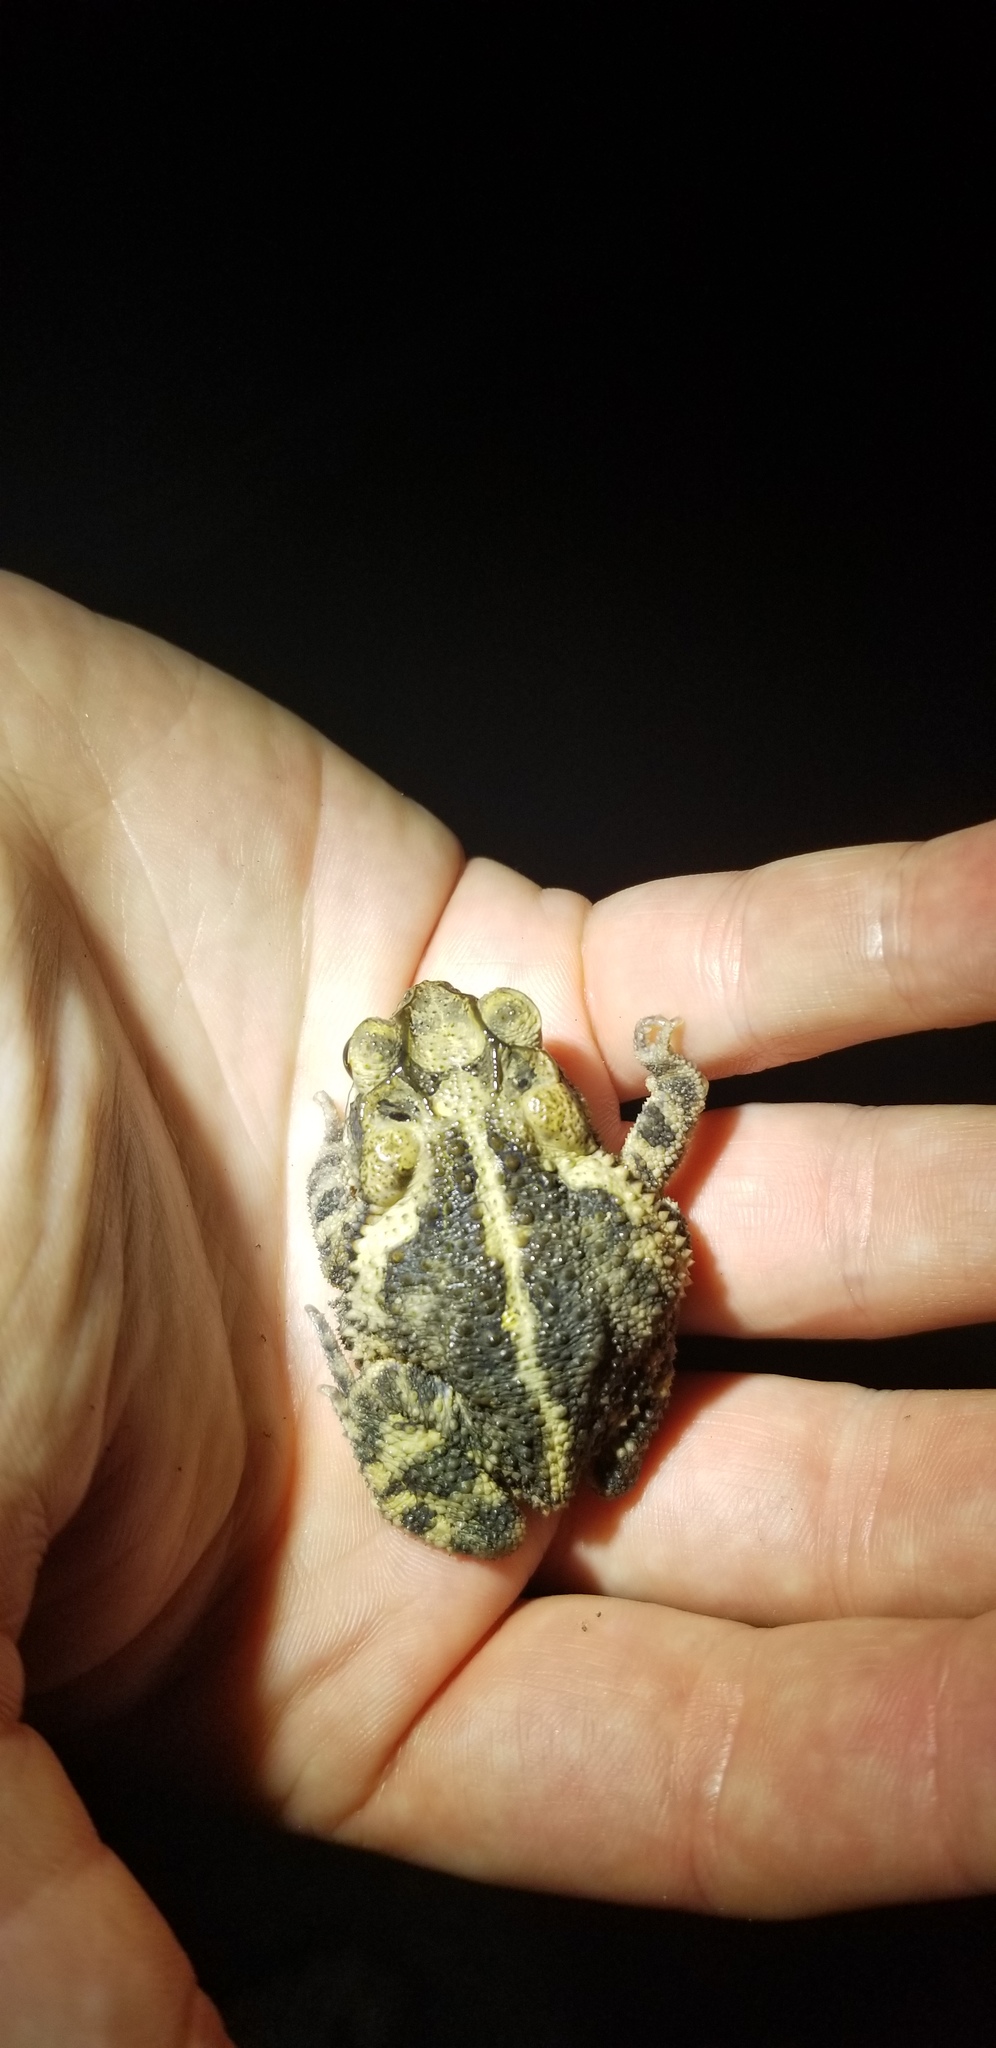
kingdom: Animalia
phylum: Chordata
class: Amphibia
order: Anura
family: Bufonidae
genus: Incilius
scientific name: Incilius nebulifer
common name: Gulf coast toad
